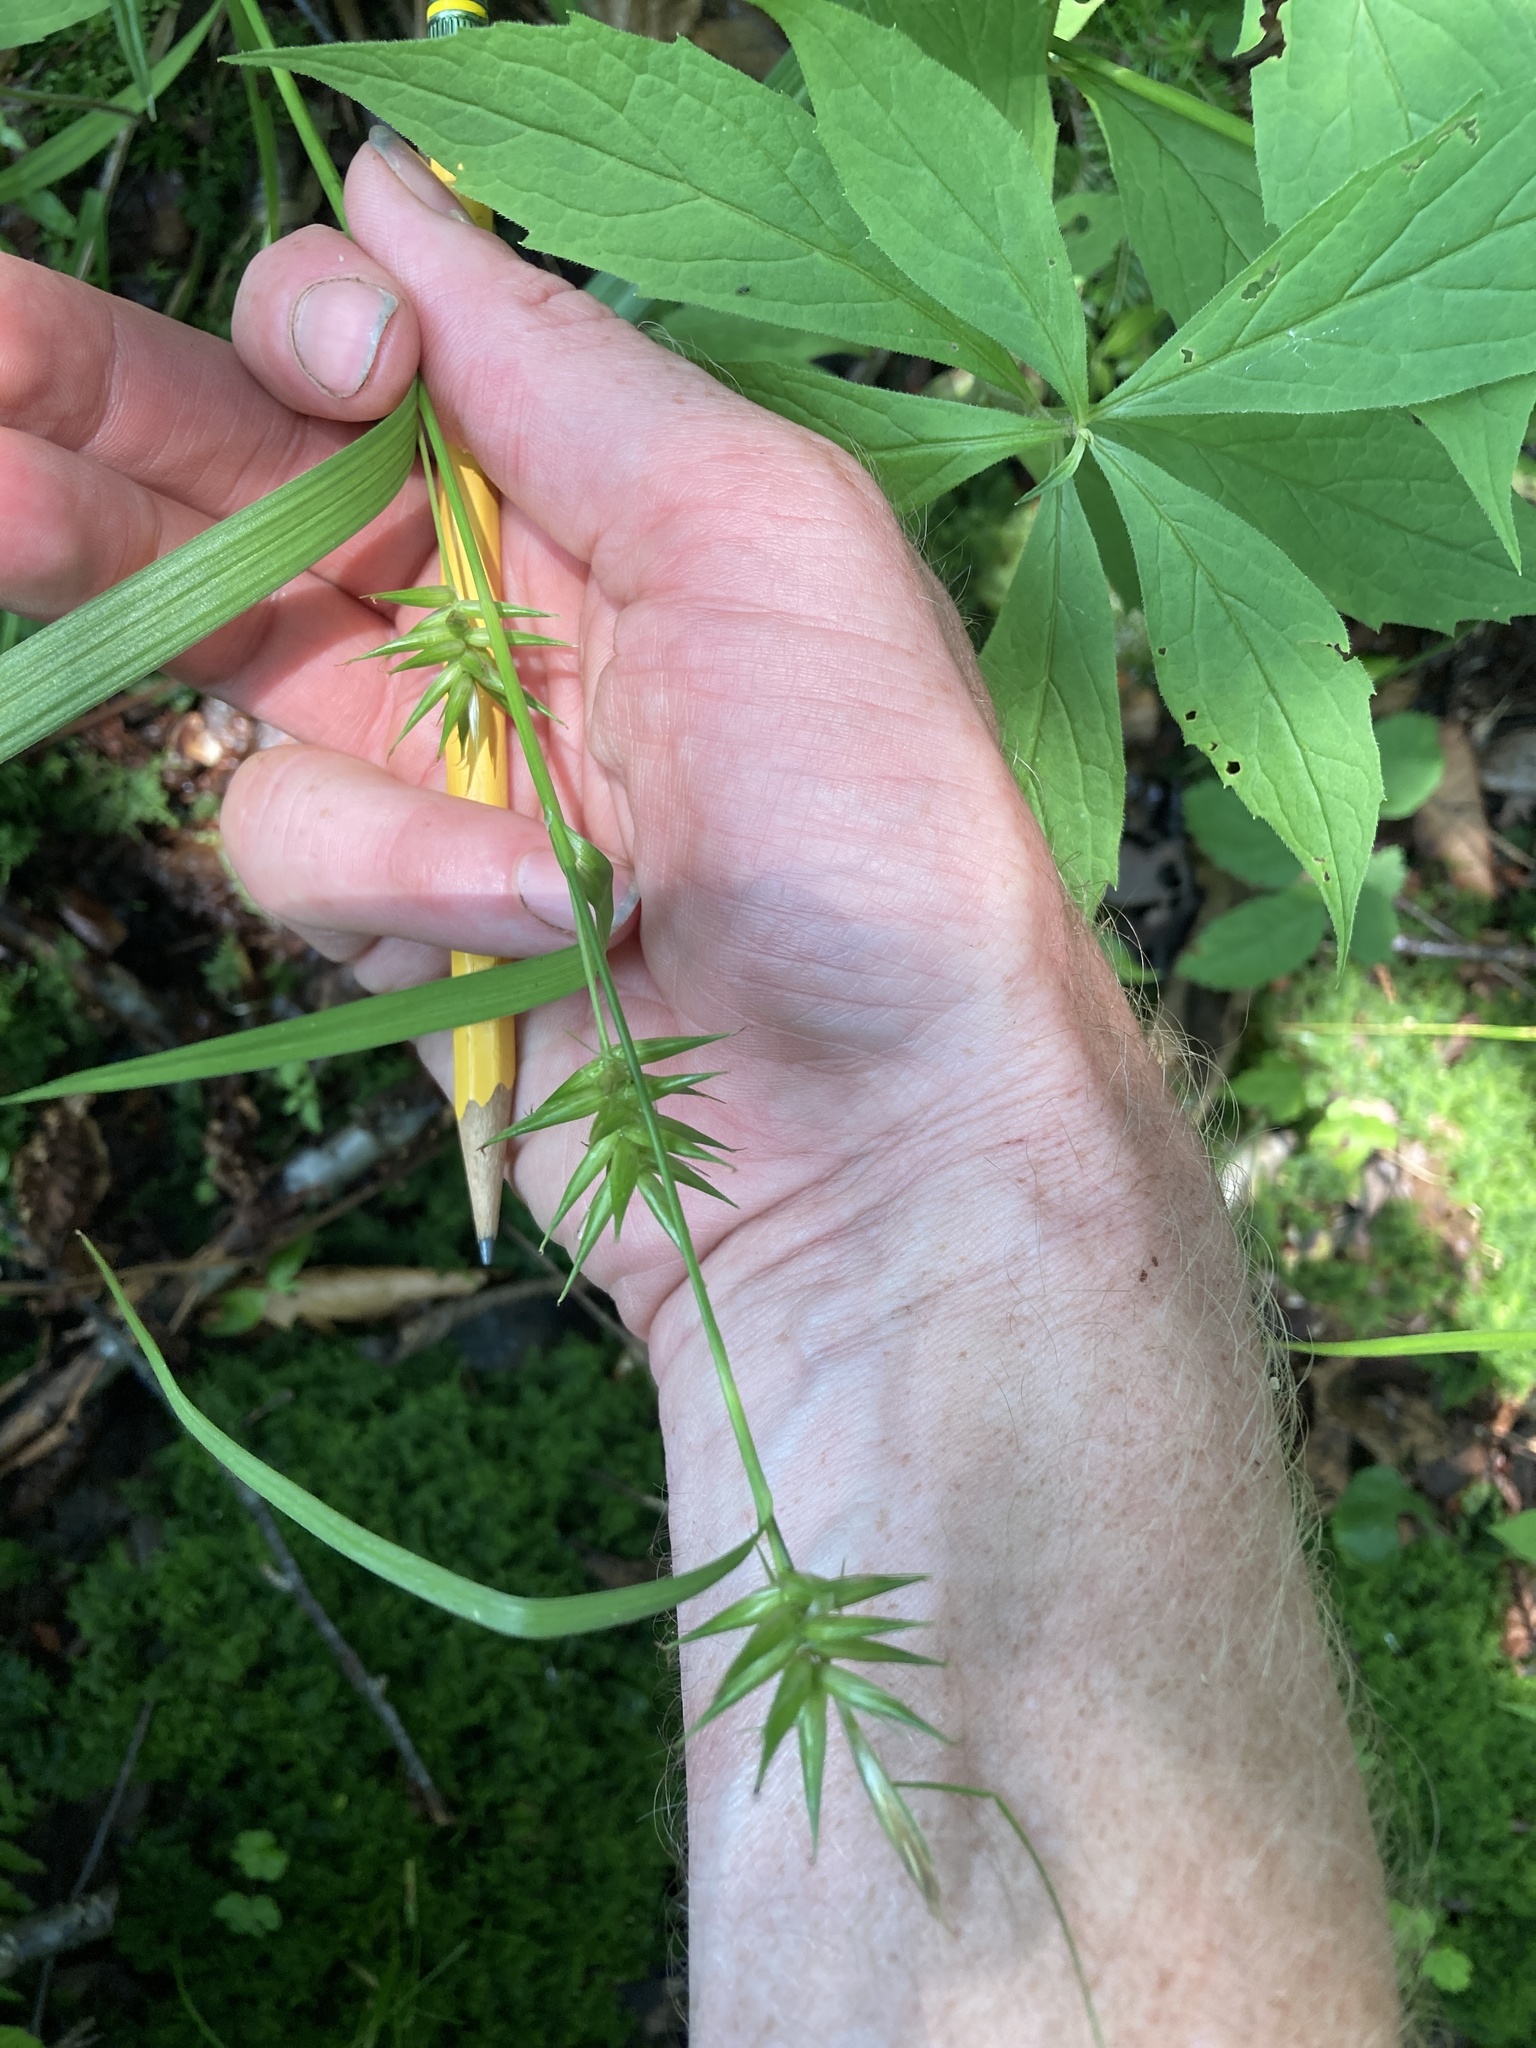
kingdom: Plantae
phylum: Tracheophyta
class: Liliopsida
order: Poales
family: Cyperaceae
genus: Carex
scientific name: Carex folliculata
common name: Northern long sedge
